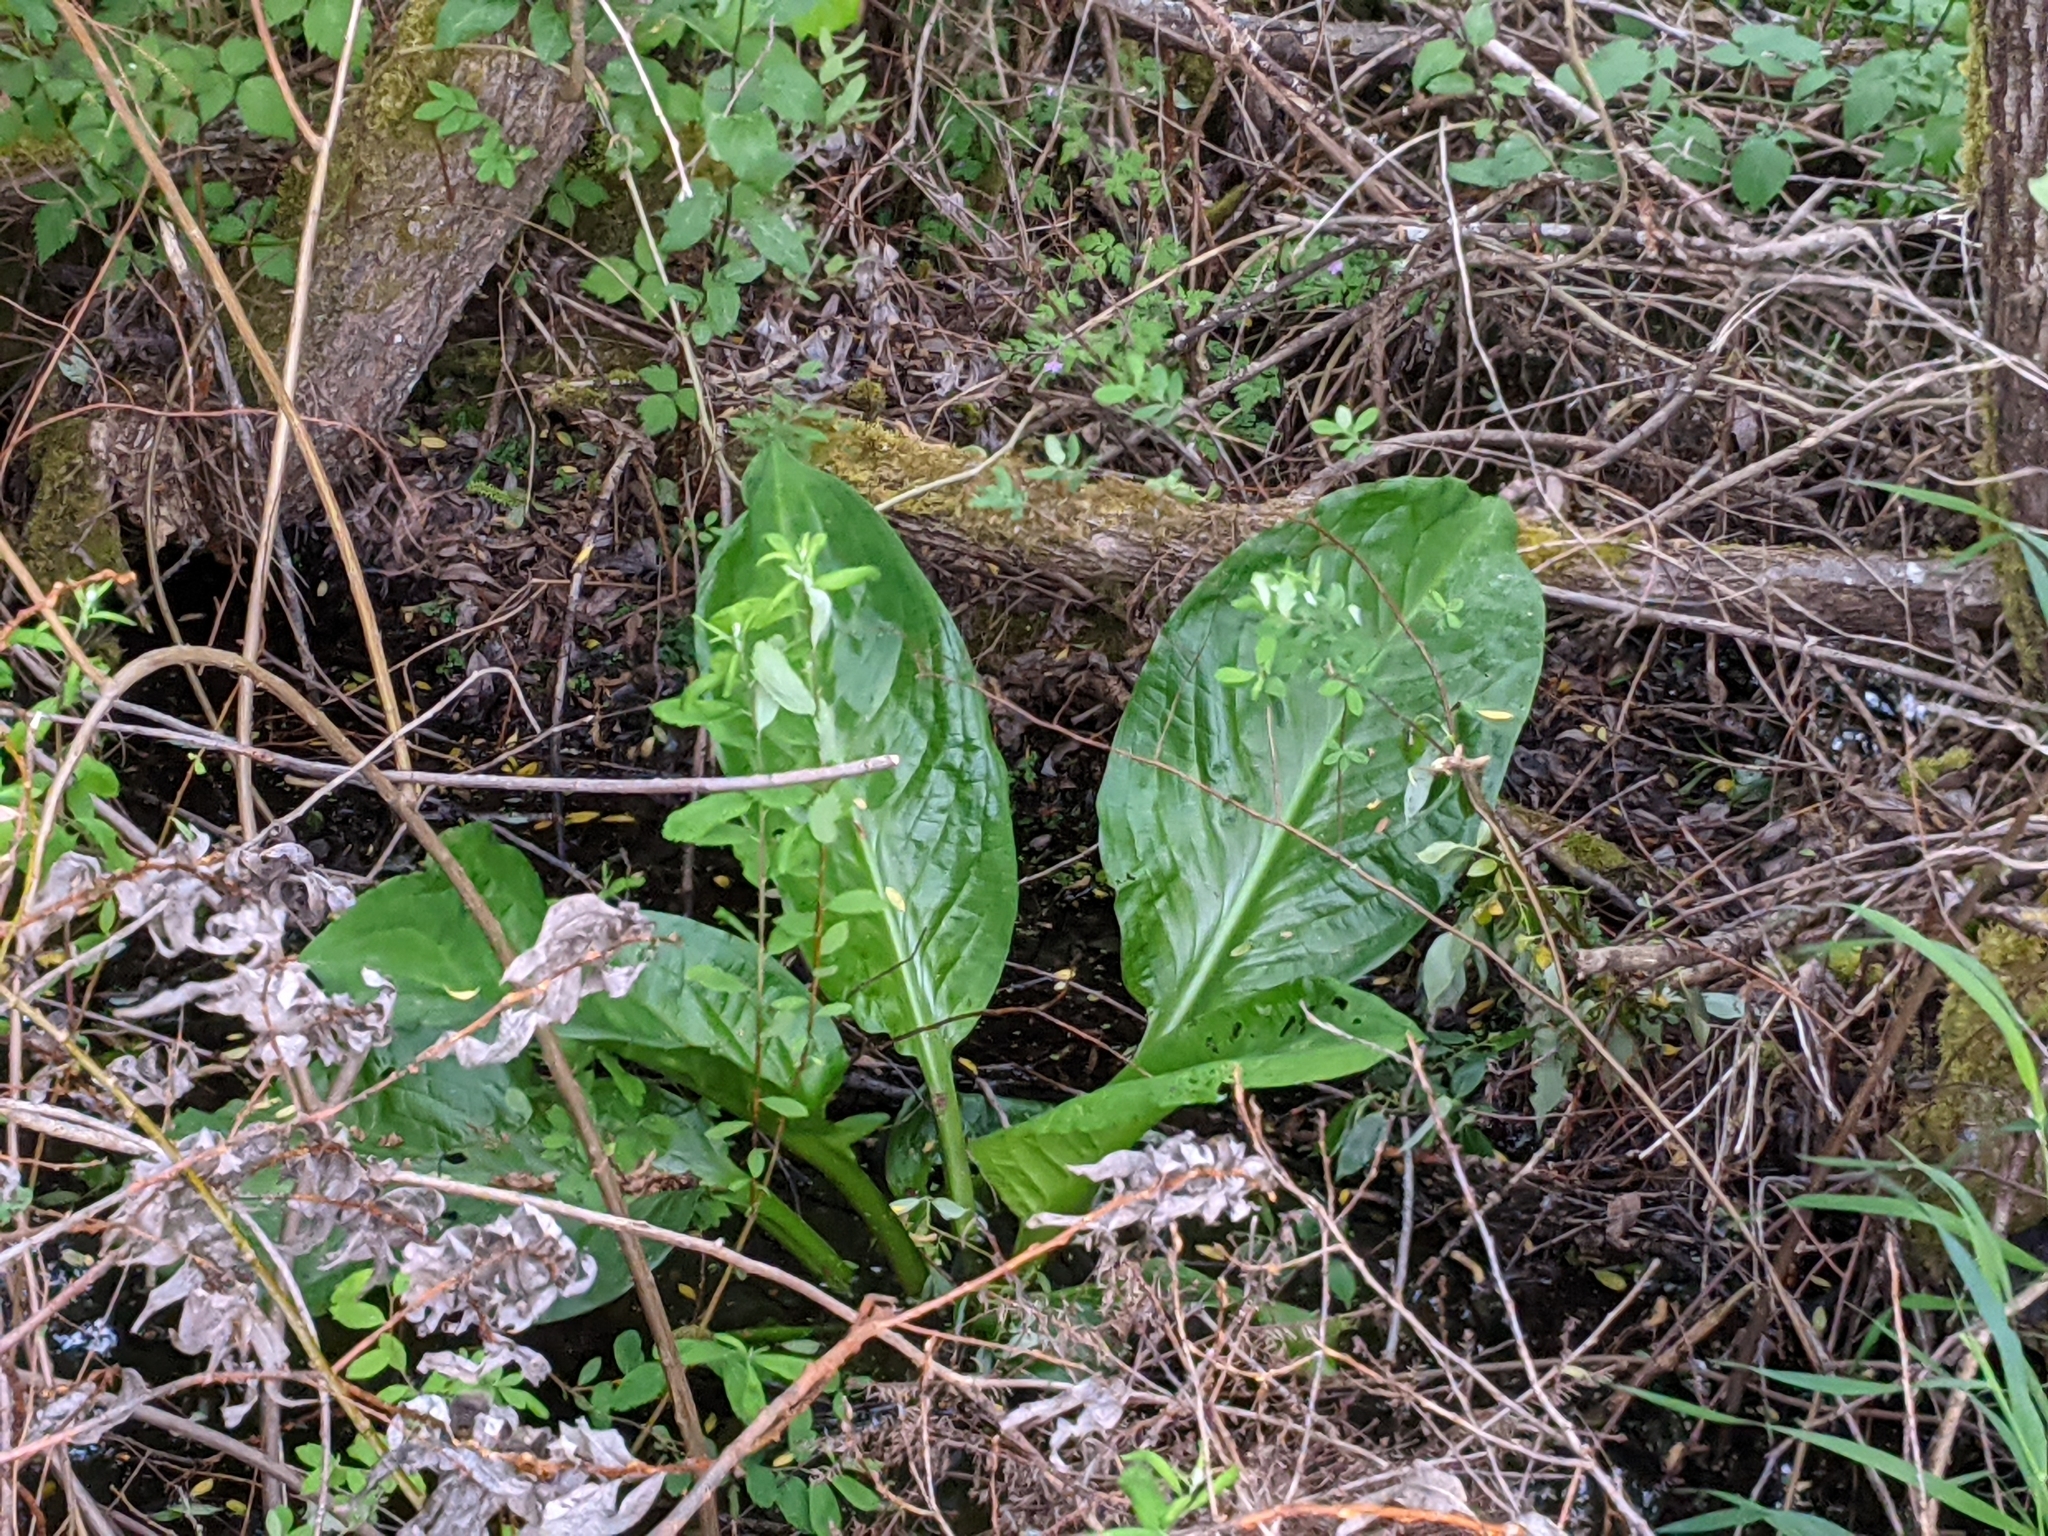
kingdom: Plantae
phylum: Tracheophyta
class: Liliopsida
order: Alismatales
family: Araceae
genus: Lysichiton
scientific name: Lysichiton americanus
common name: American skunk cabbage
